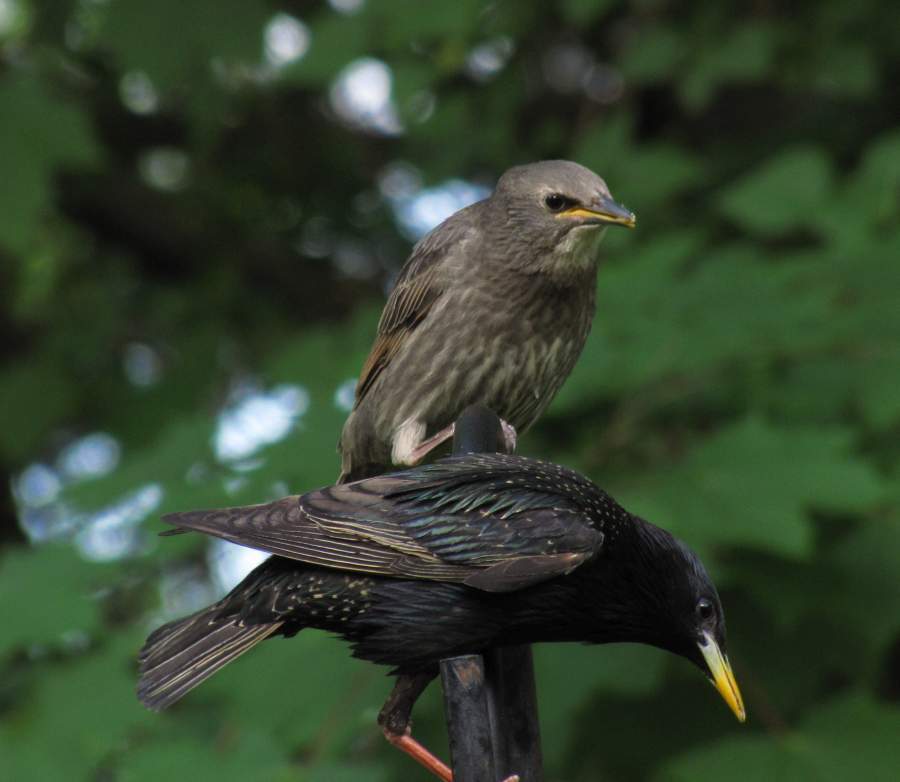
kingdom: Animalia
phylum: Chordata
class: Aves
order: Passeriformes
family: Sturnidae
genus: Sturnus
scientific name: Sturnus vulgaris
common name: Common starling
